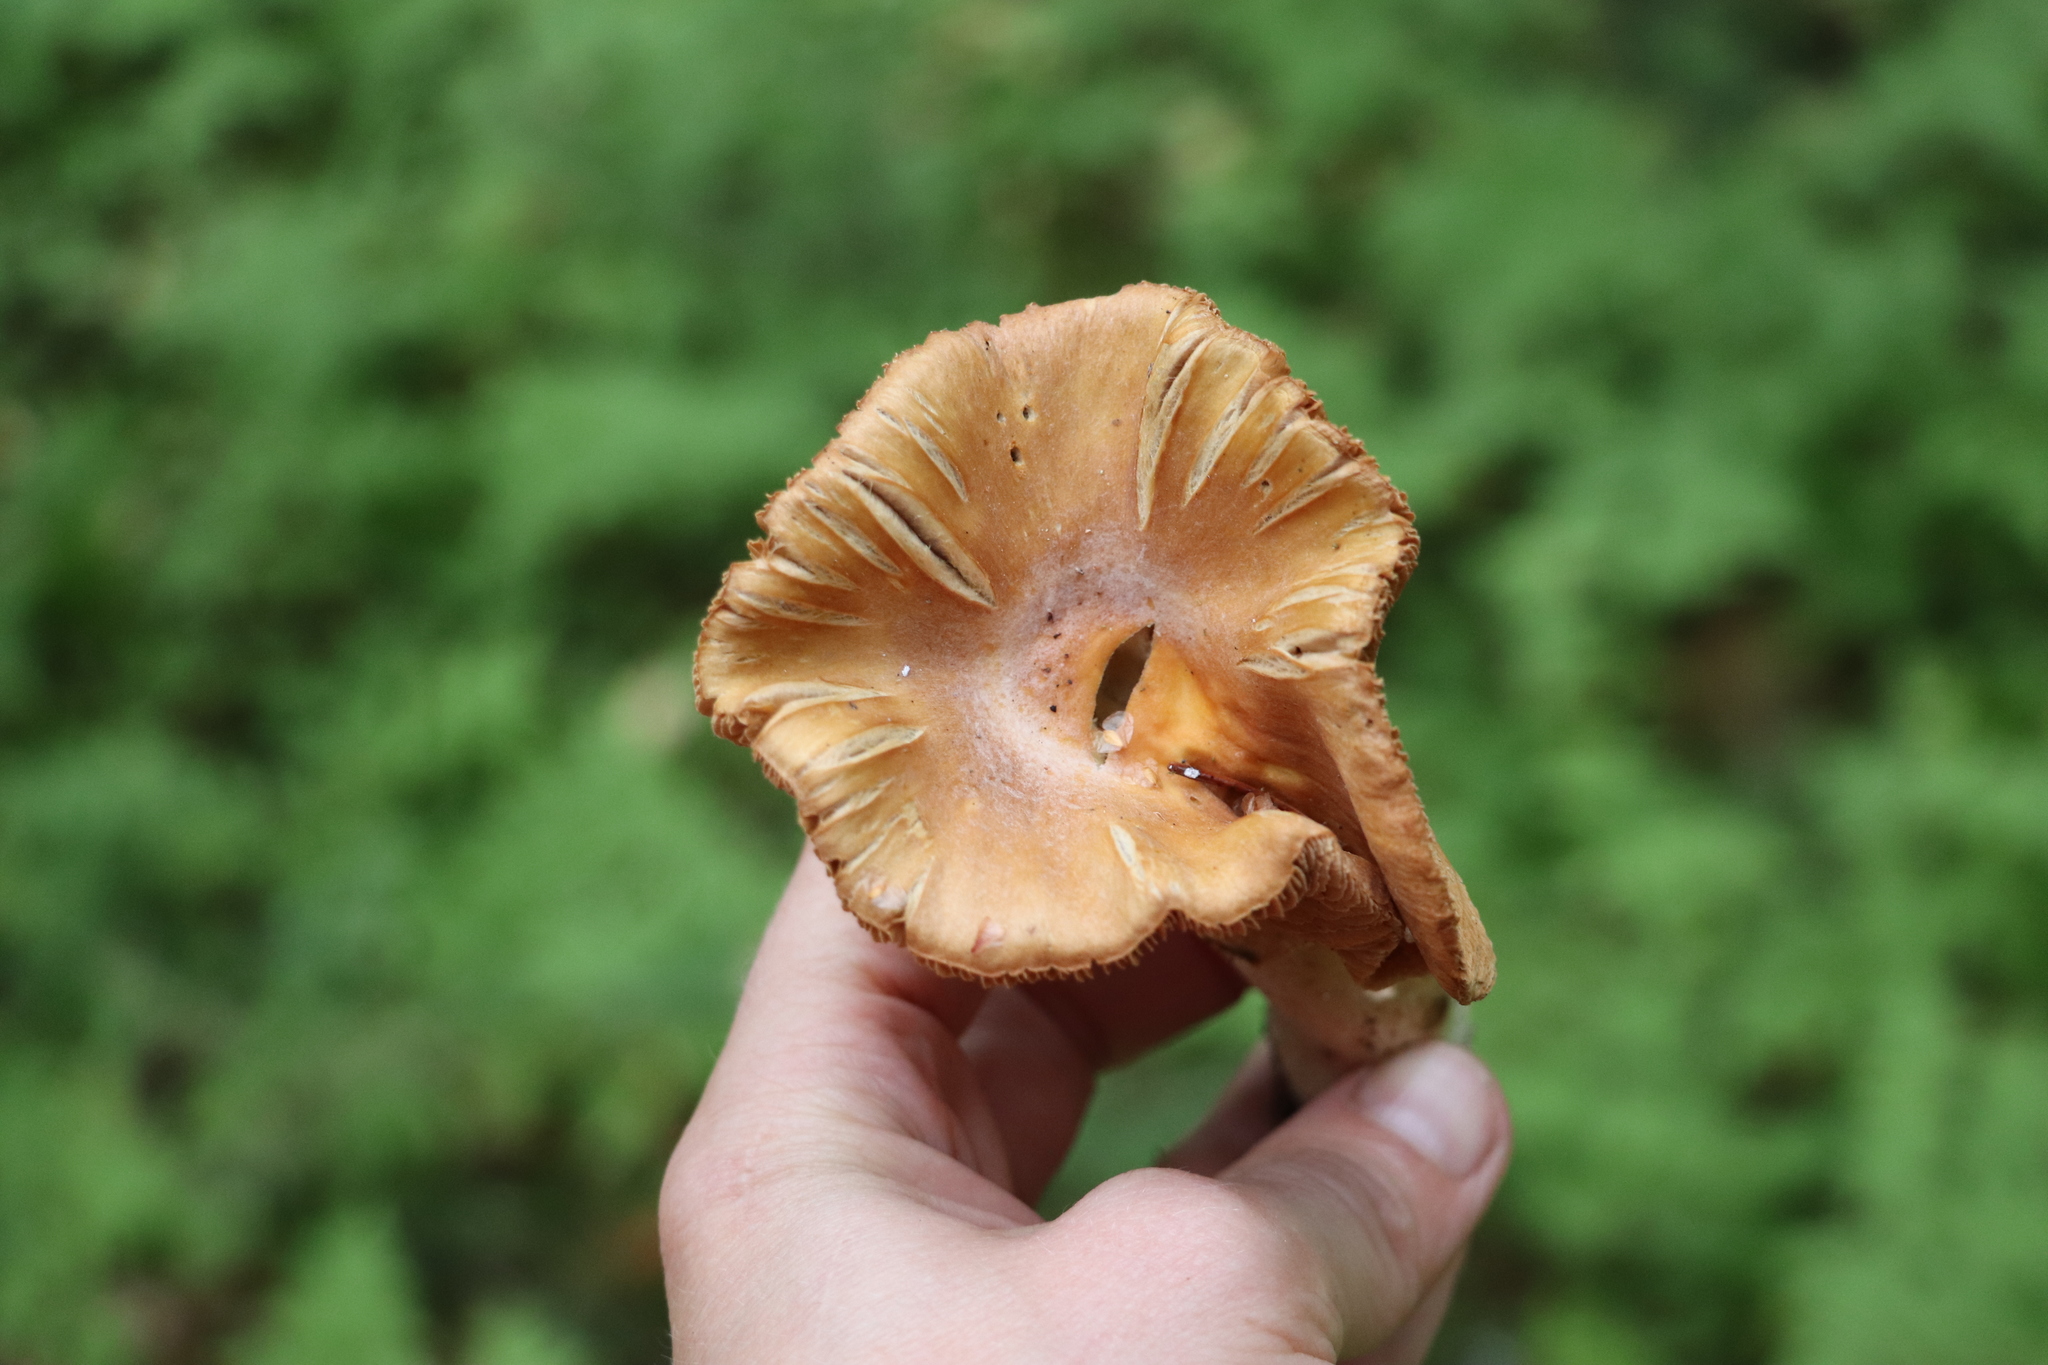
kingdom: Fungi
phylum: Basidiomycota
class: Agaricomycetes
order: Agaricales
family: Cortinariaceae
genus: Cortinarius
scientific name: Cortinarius caperatus
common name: The gypsy
